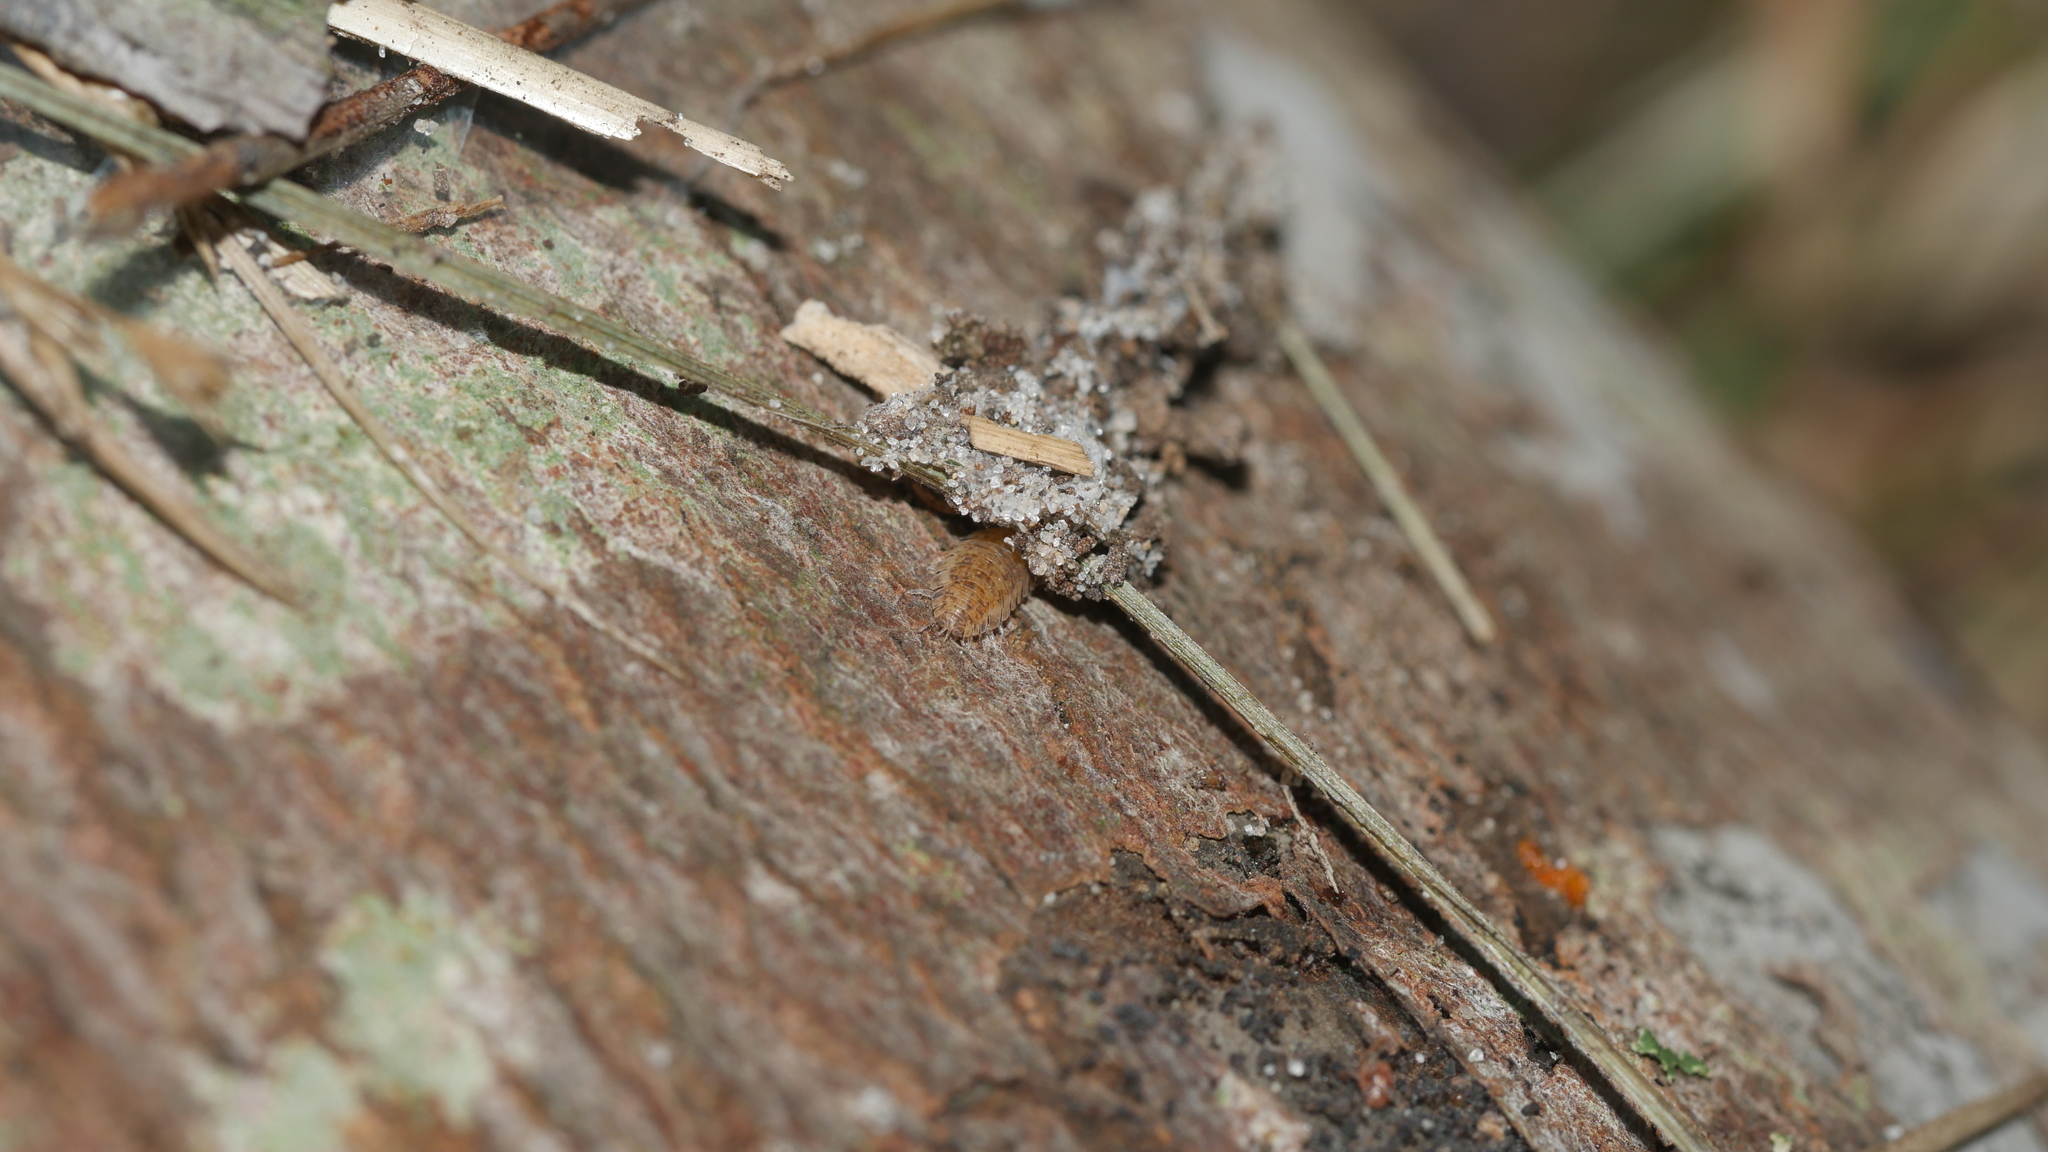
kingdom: Animalia
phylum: Arthropoda
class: Malacostraca
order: Isopoda
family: Porcellionidae
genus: Porcellio
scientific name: Porcellio scaber
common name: Common rough woodlouse
